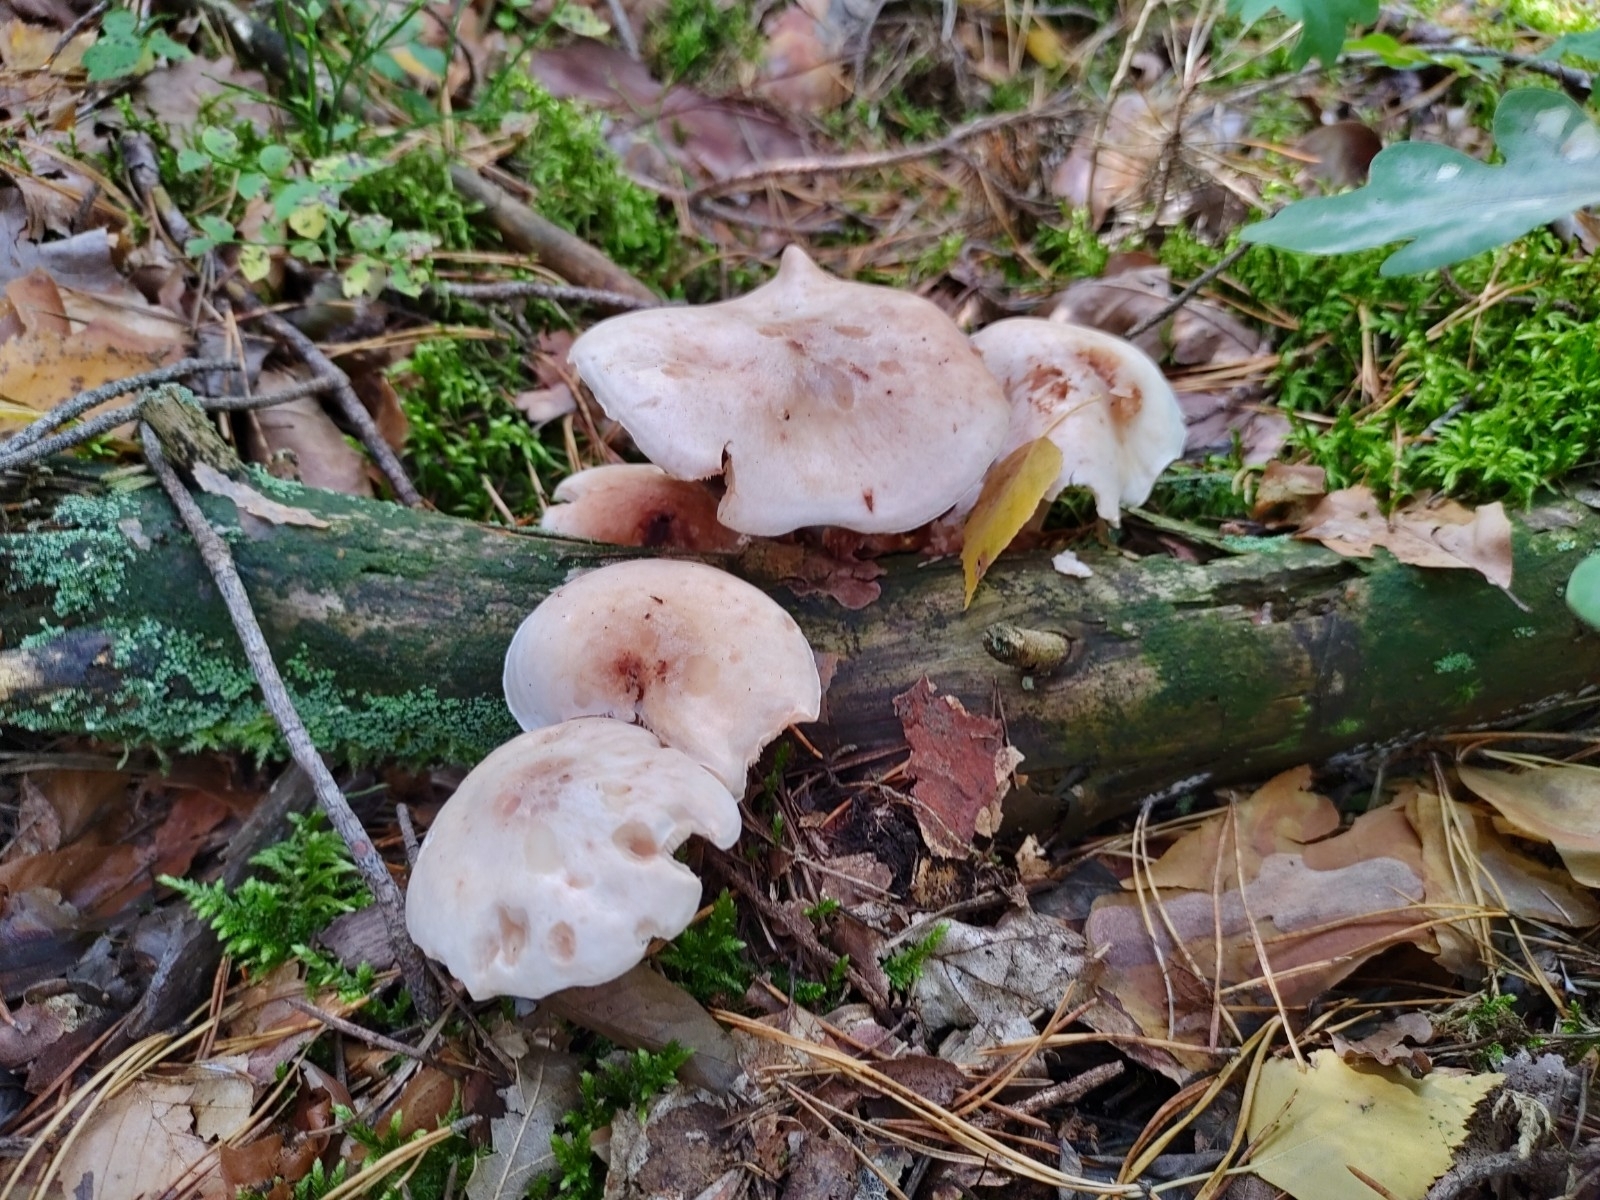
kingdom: Fungi
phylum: Basidiomycota
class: Agaricomycetes
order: Agaricales
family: Omphalotaceae
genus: Rhodocollybia
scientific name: Rhodocollybia maculata
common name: Spotted tough-shank
